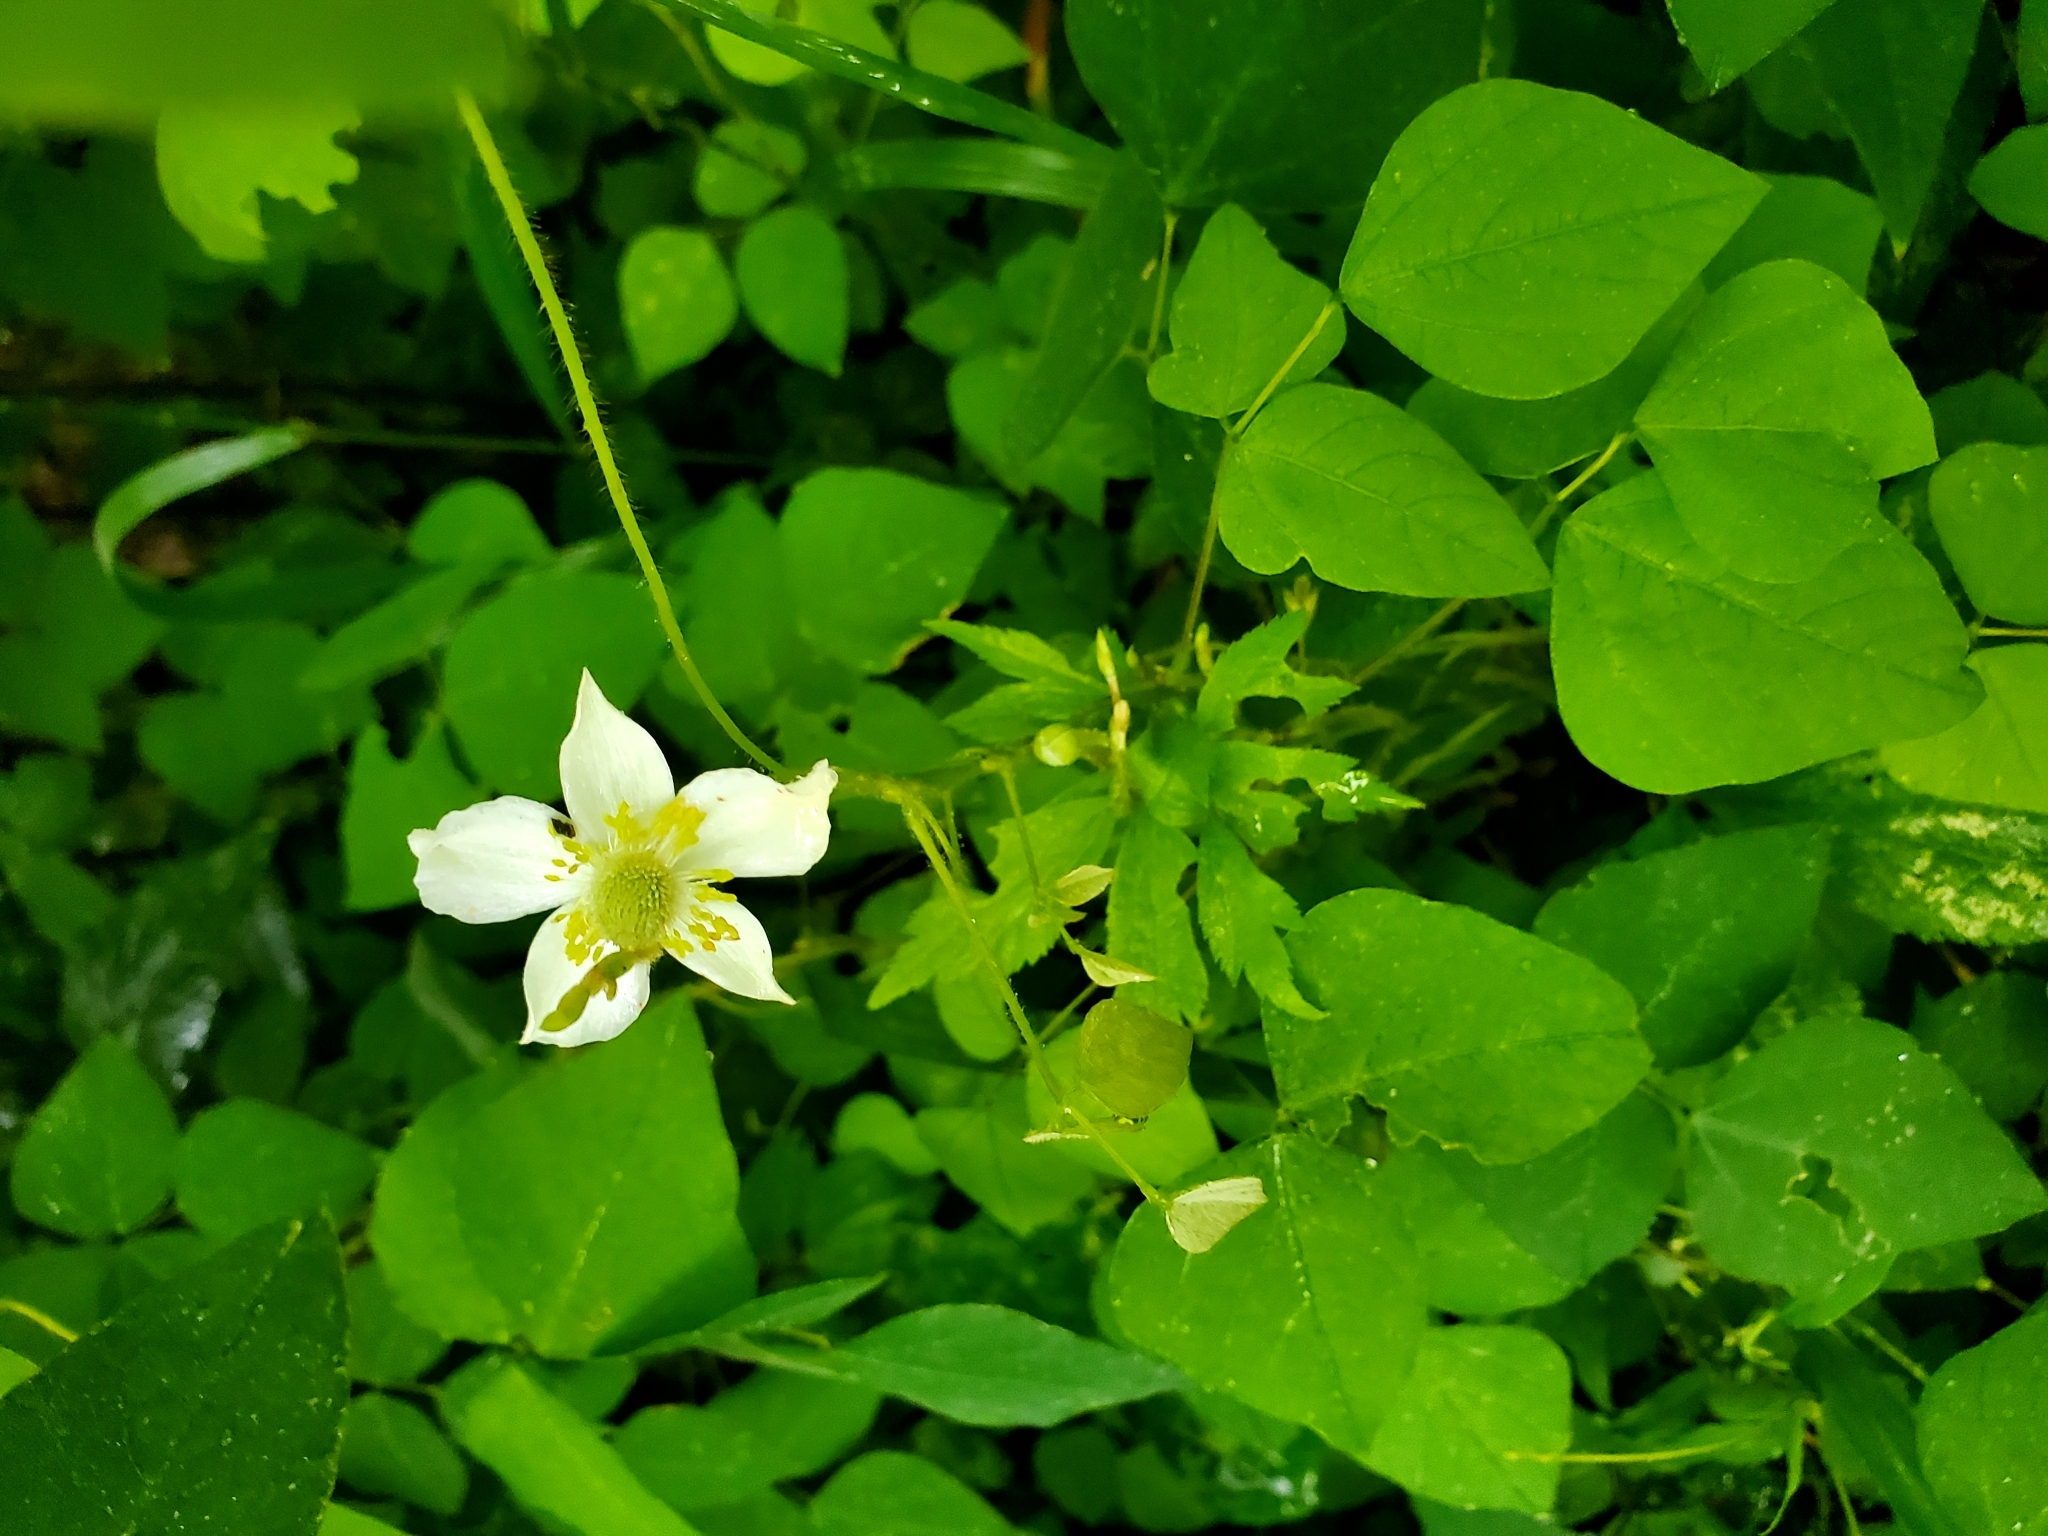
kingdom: Plantae
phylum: Tracheophyta
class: Magnoliopsida
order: Ranunculales
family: Ranunculaceae
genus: Anemone
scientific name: Anemone virginiana
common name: Tall anemone
